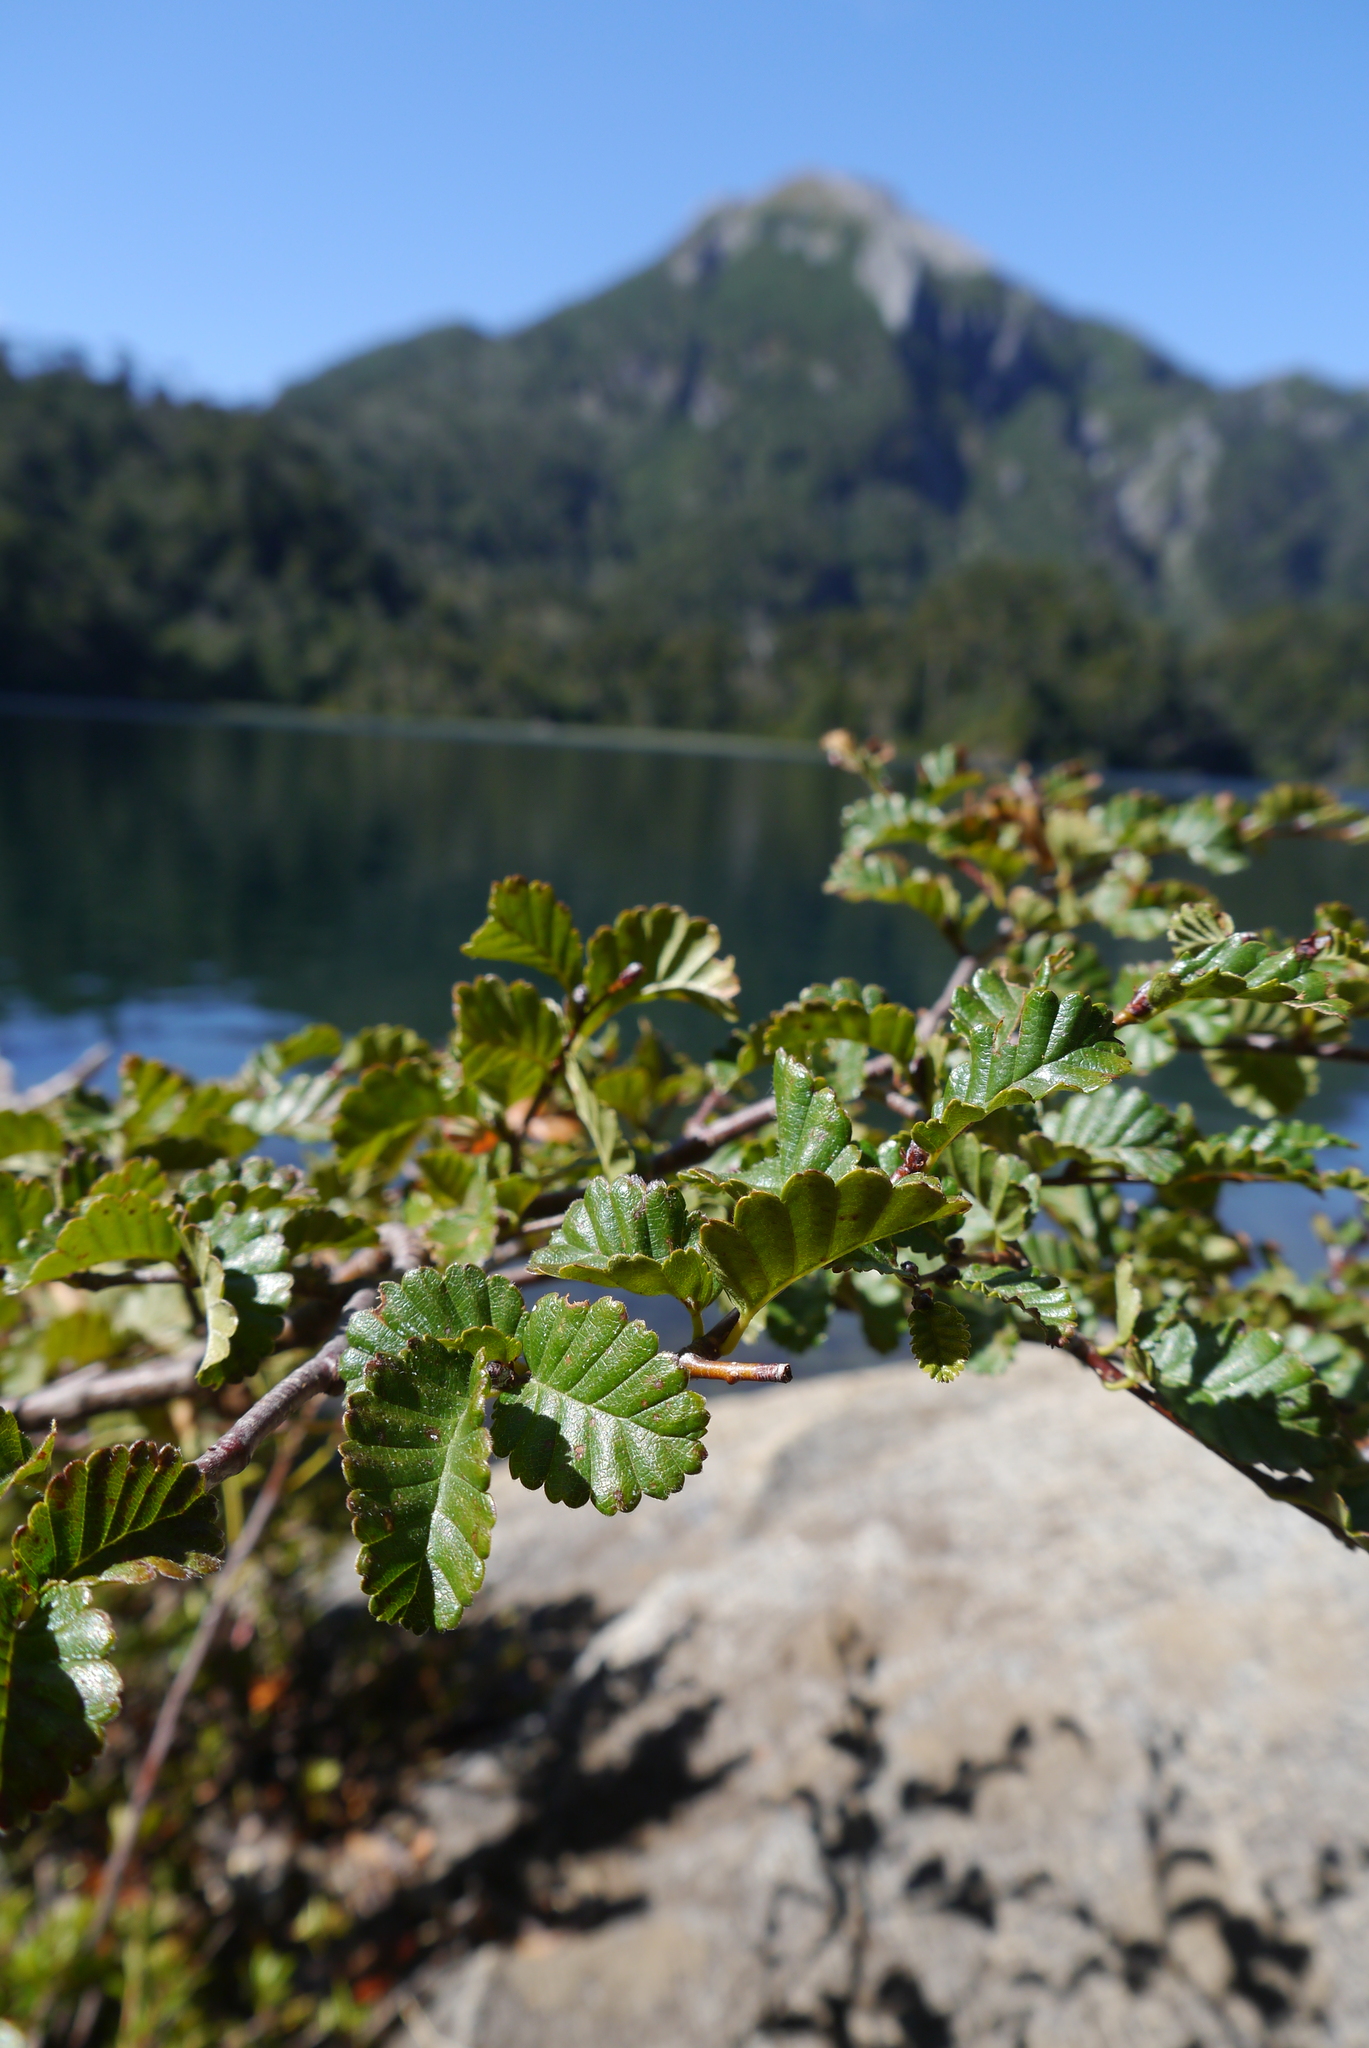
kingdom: Plantae
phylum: Tracheophyta
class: Magnoliopsida
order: Fagales
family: Nothofagaceae
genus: Nothofagus
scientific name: Nothofagus pumilio
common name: Lenga beech
